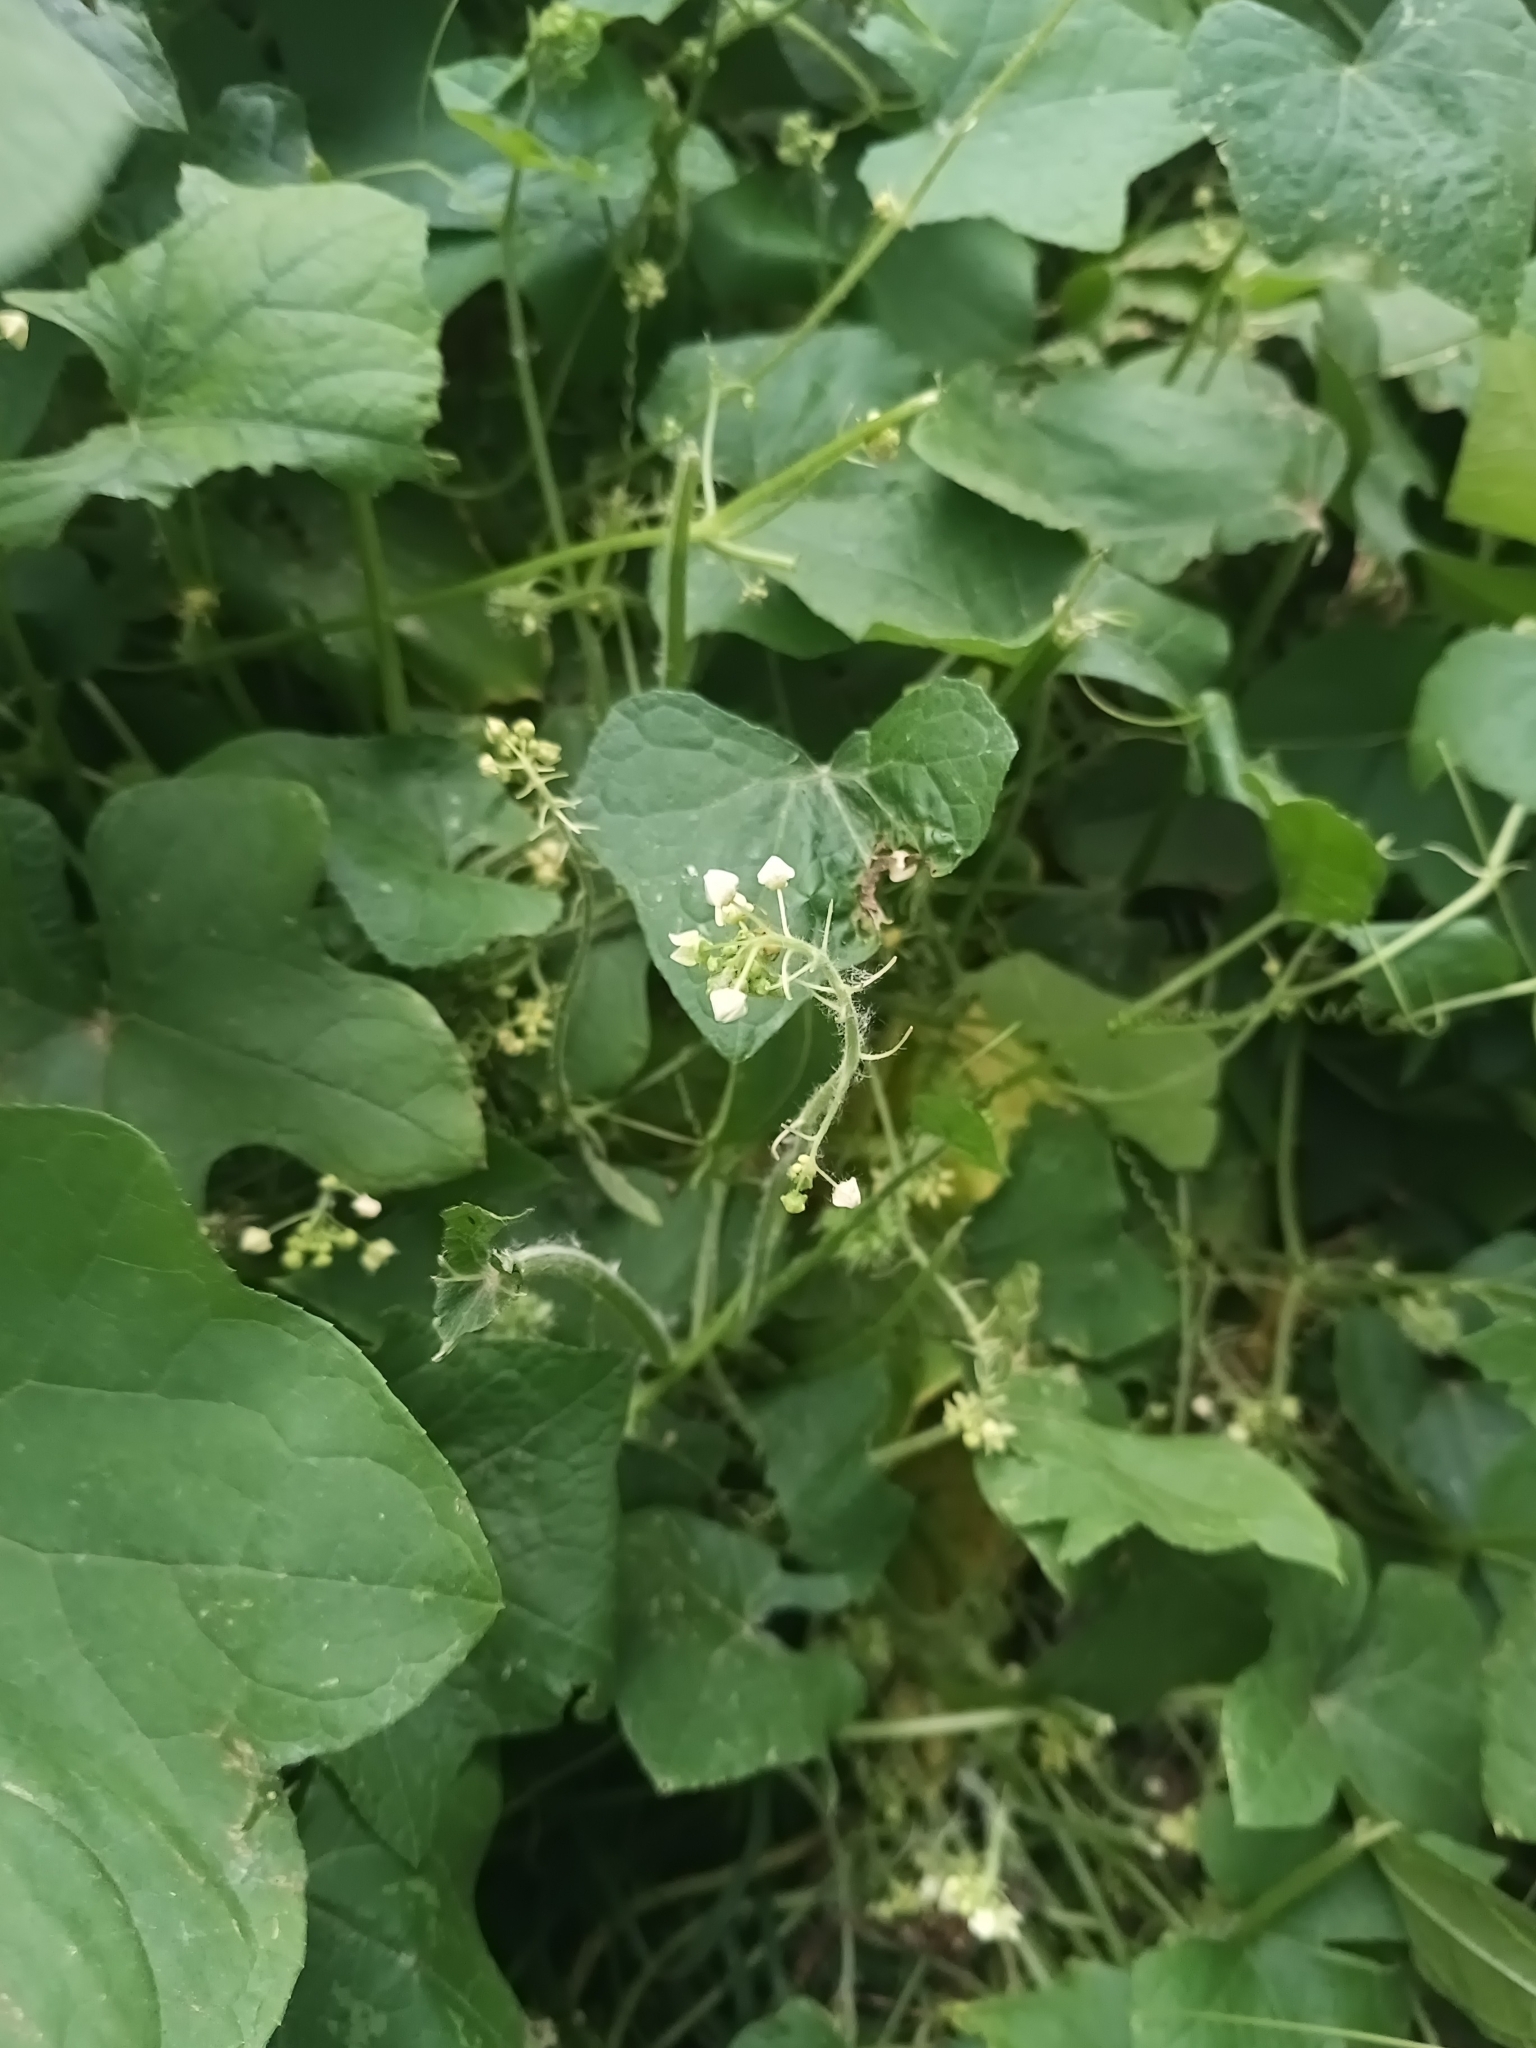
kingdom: Plantae
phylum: Tracheophyta
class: Magnoliopsida
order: Cucurbitales
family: Cucurbitaceae
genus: Sicyos
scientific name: Sicyos angulatus
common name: Angled burr cucumber
